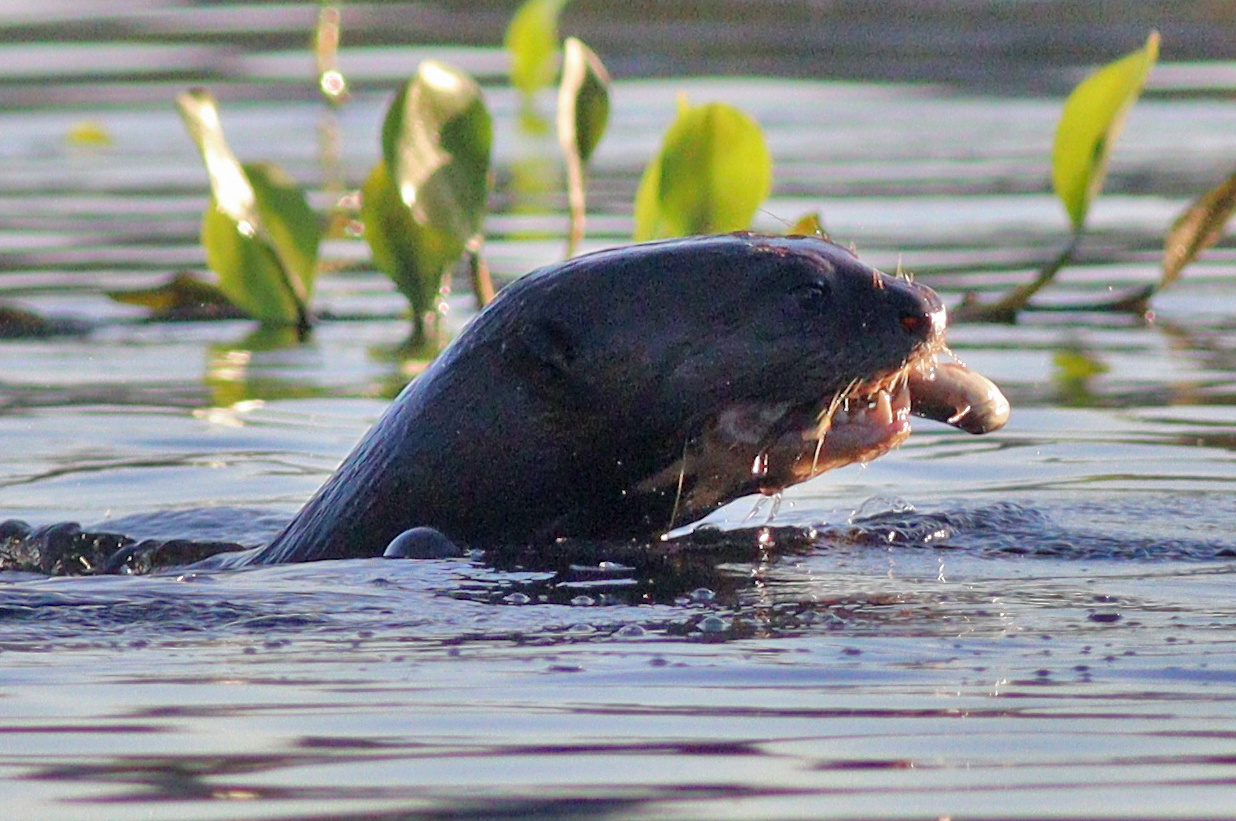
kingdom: Animalia
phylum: Chordata
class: Mammalia
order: Carnivora
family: Mustelidae
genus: Pteronura
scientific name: Pteronura brasiliensis
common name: Giant otter
